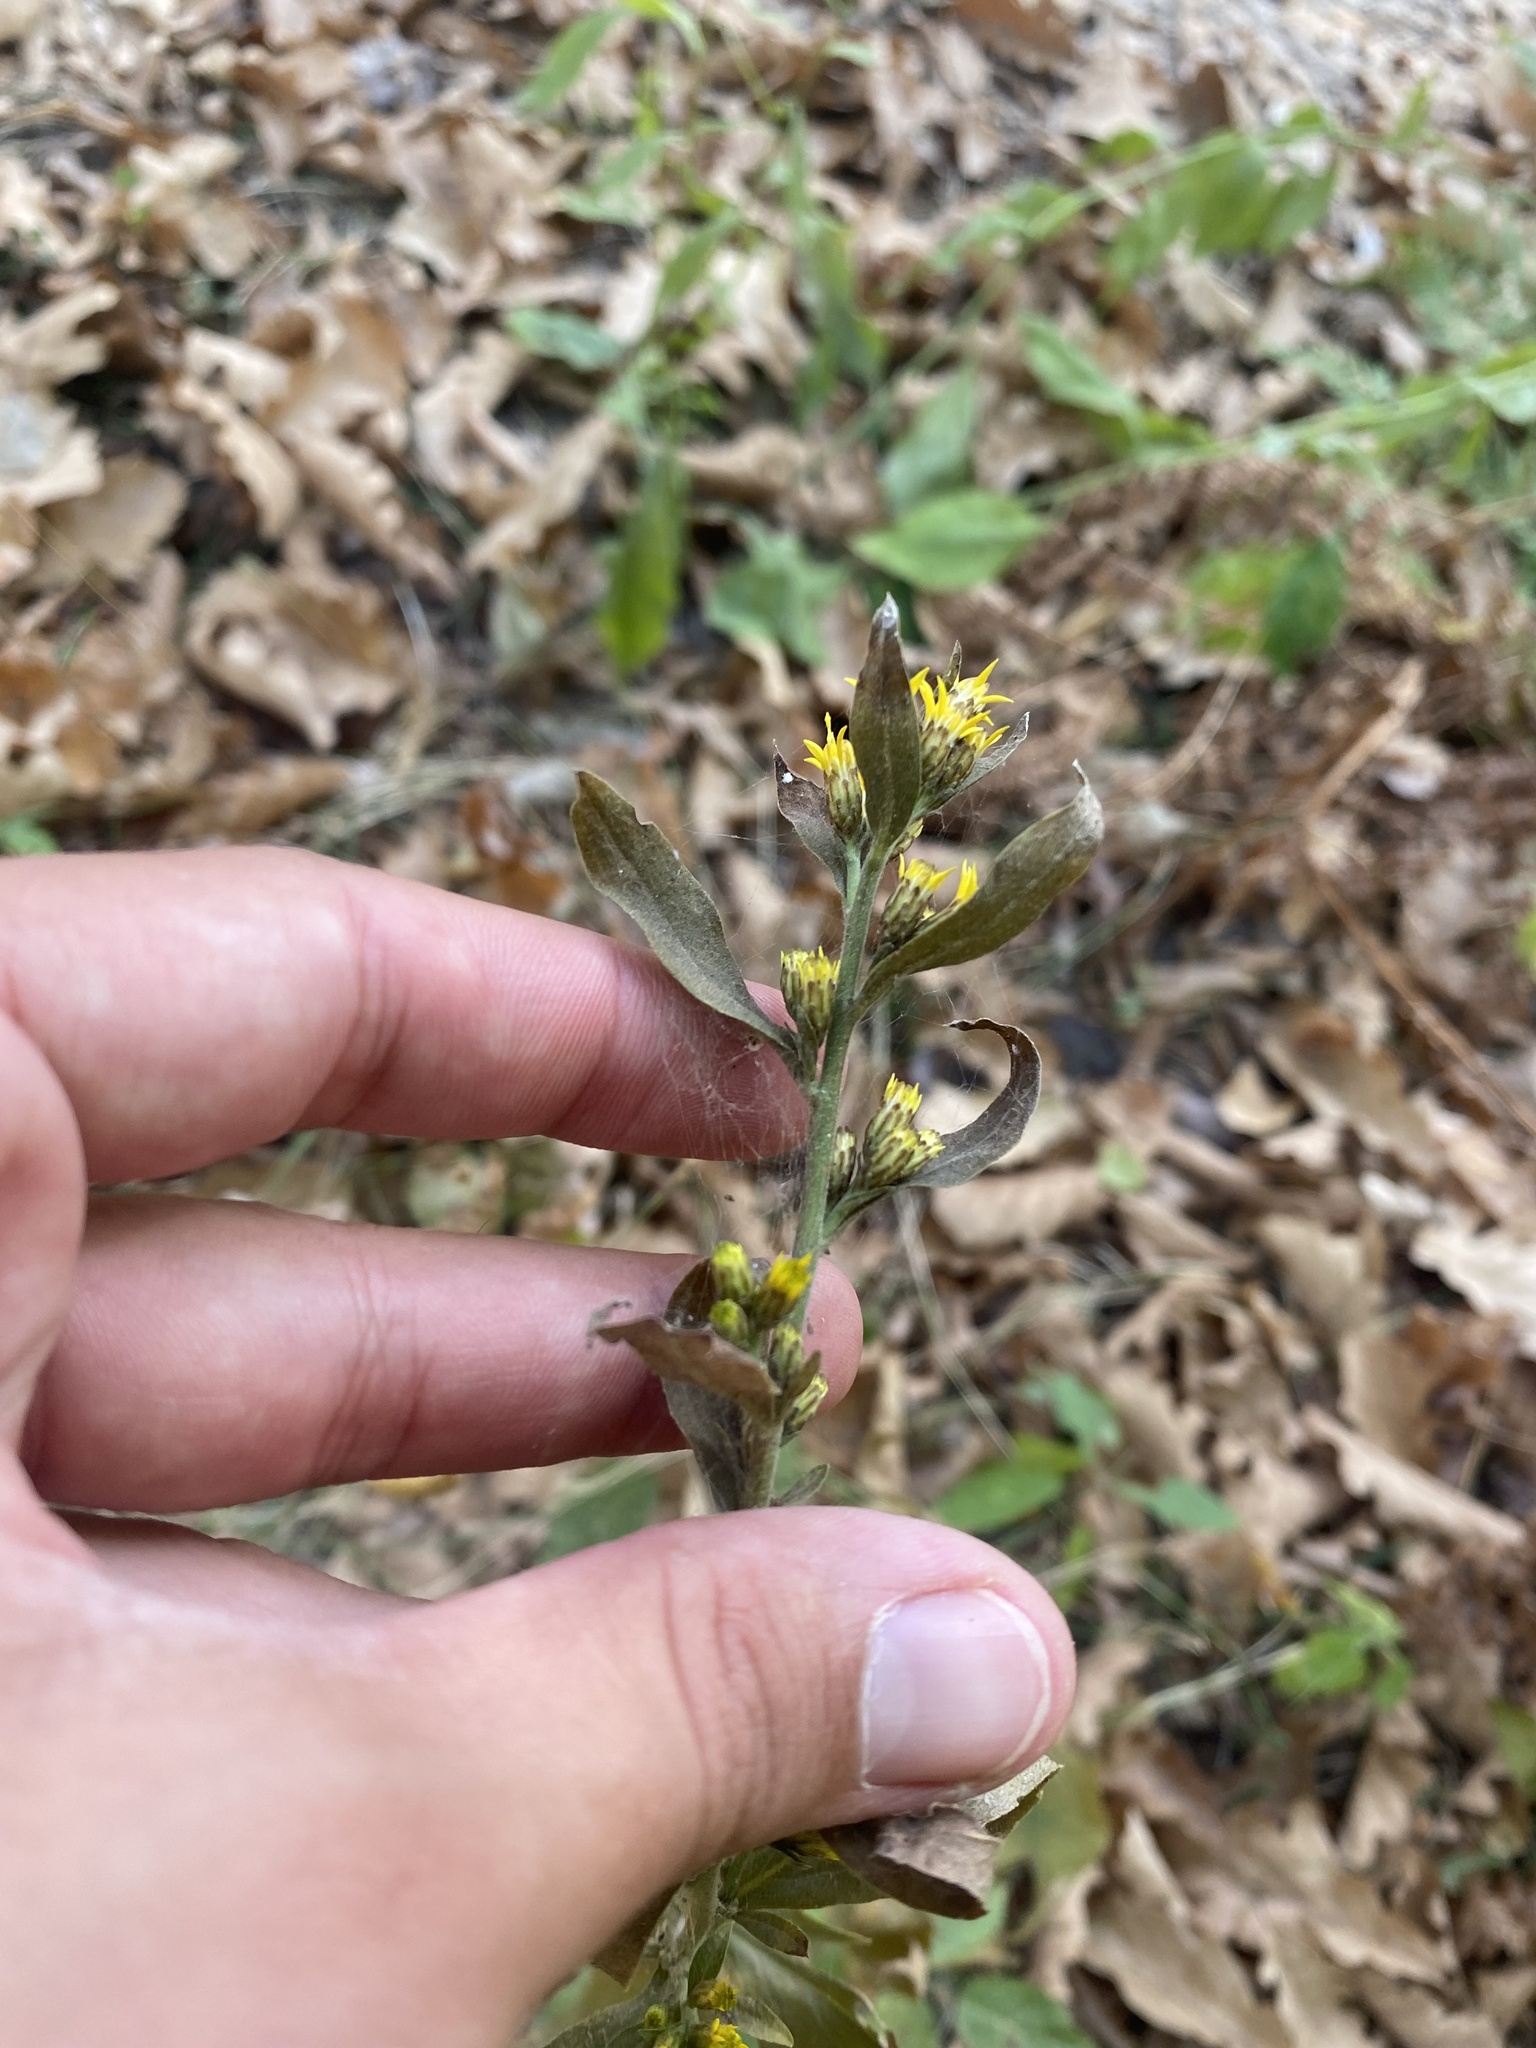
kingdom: Plantae
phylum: Tracheophyta
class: Magnoliopsida
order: Asterales
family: Asteraceae
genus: Solidago
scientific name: Solidago virgaurea
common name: Goldenrod
